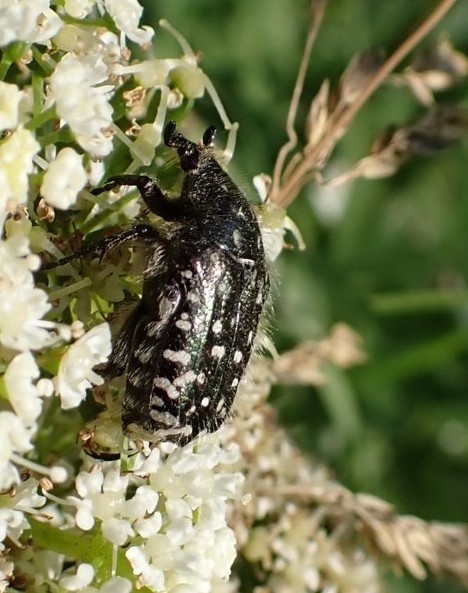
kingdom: Animalia
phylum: Arthropoda
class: Insecta
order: Coleoptera
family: Scarabaeidae
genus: Oxythyrea
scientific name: Oxythyrea funesta
